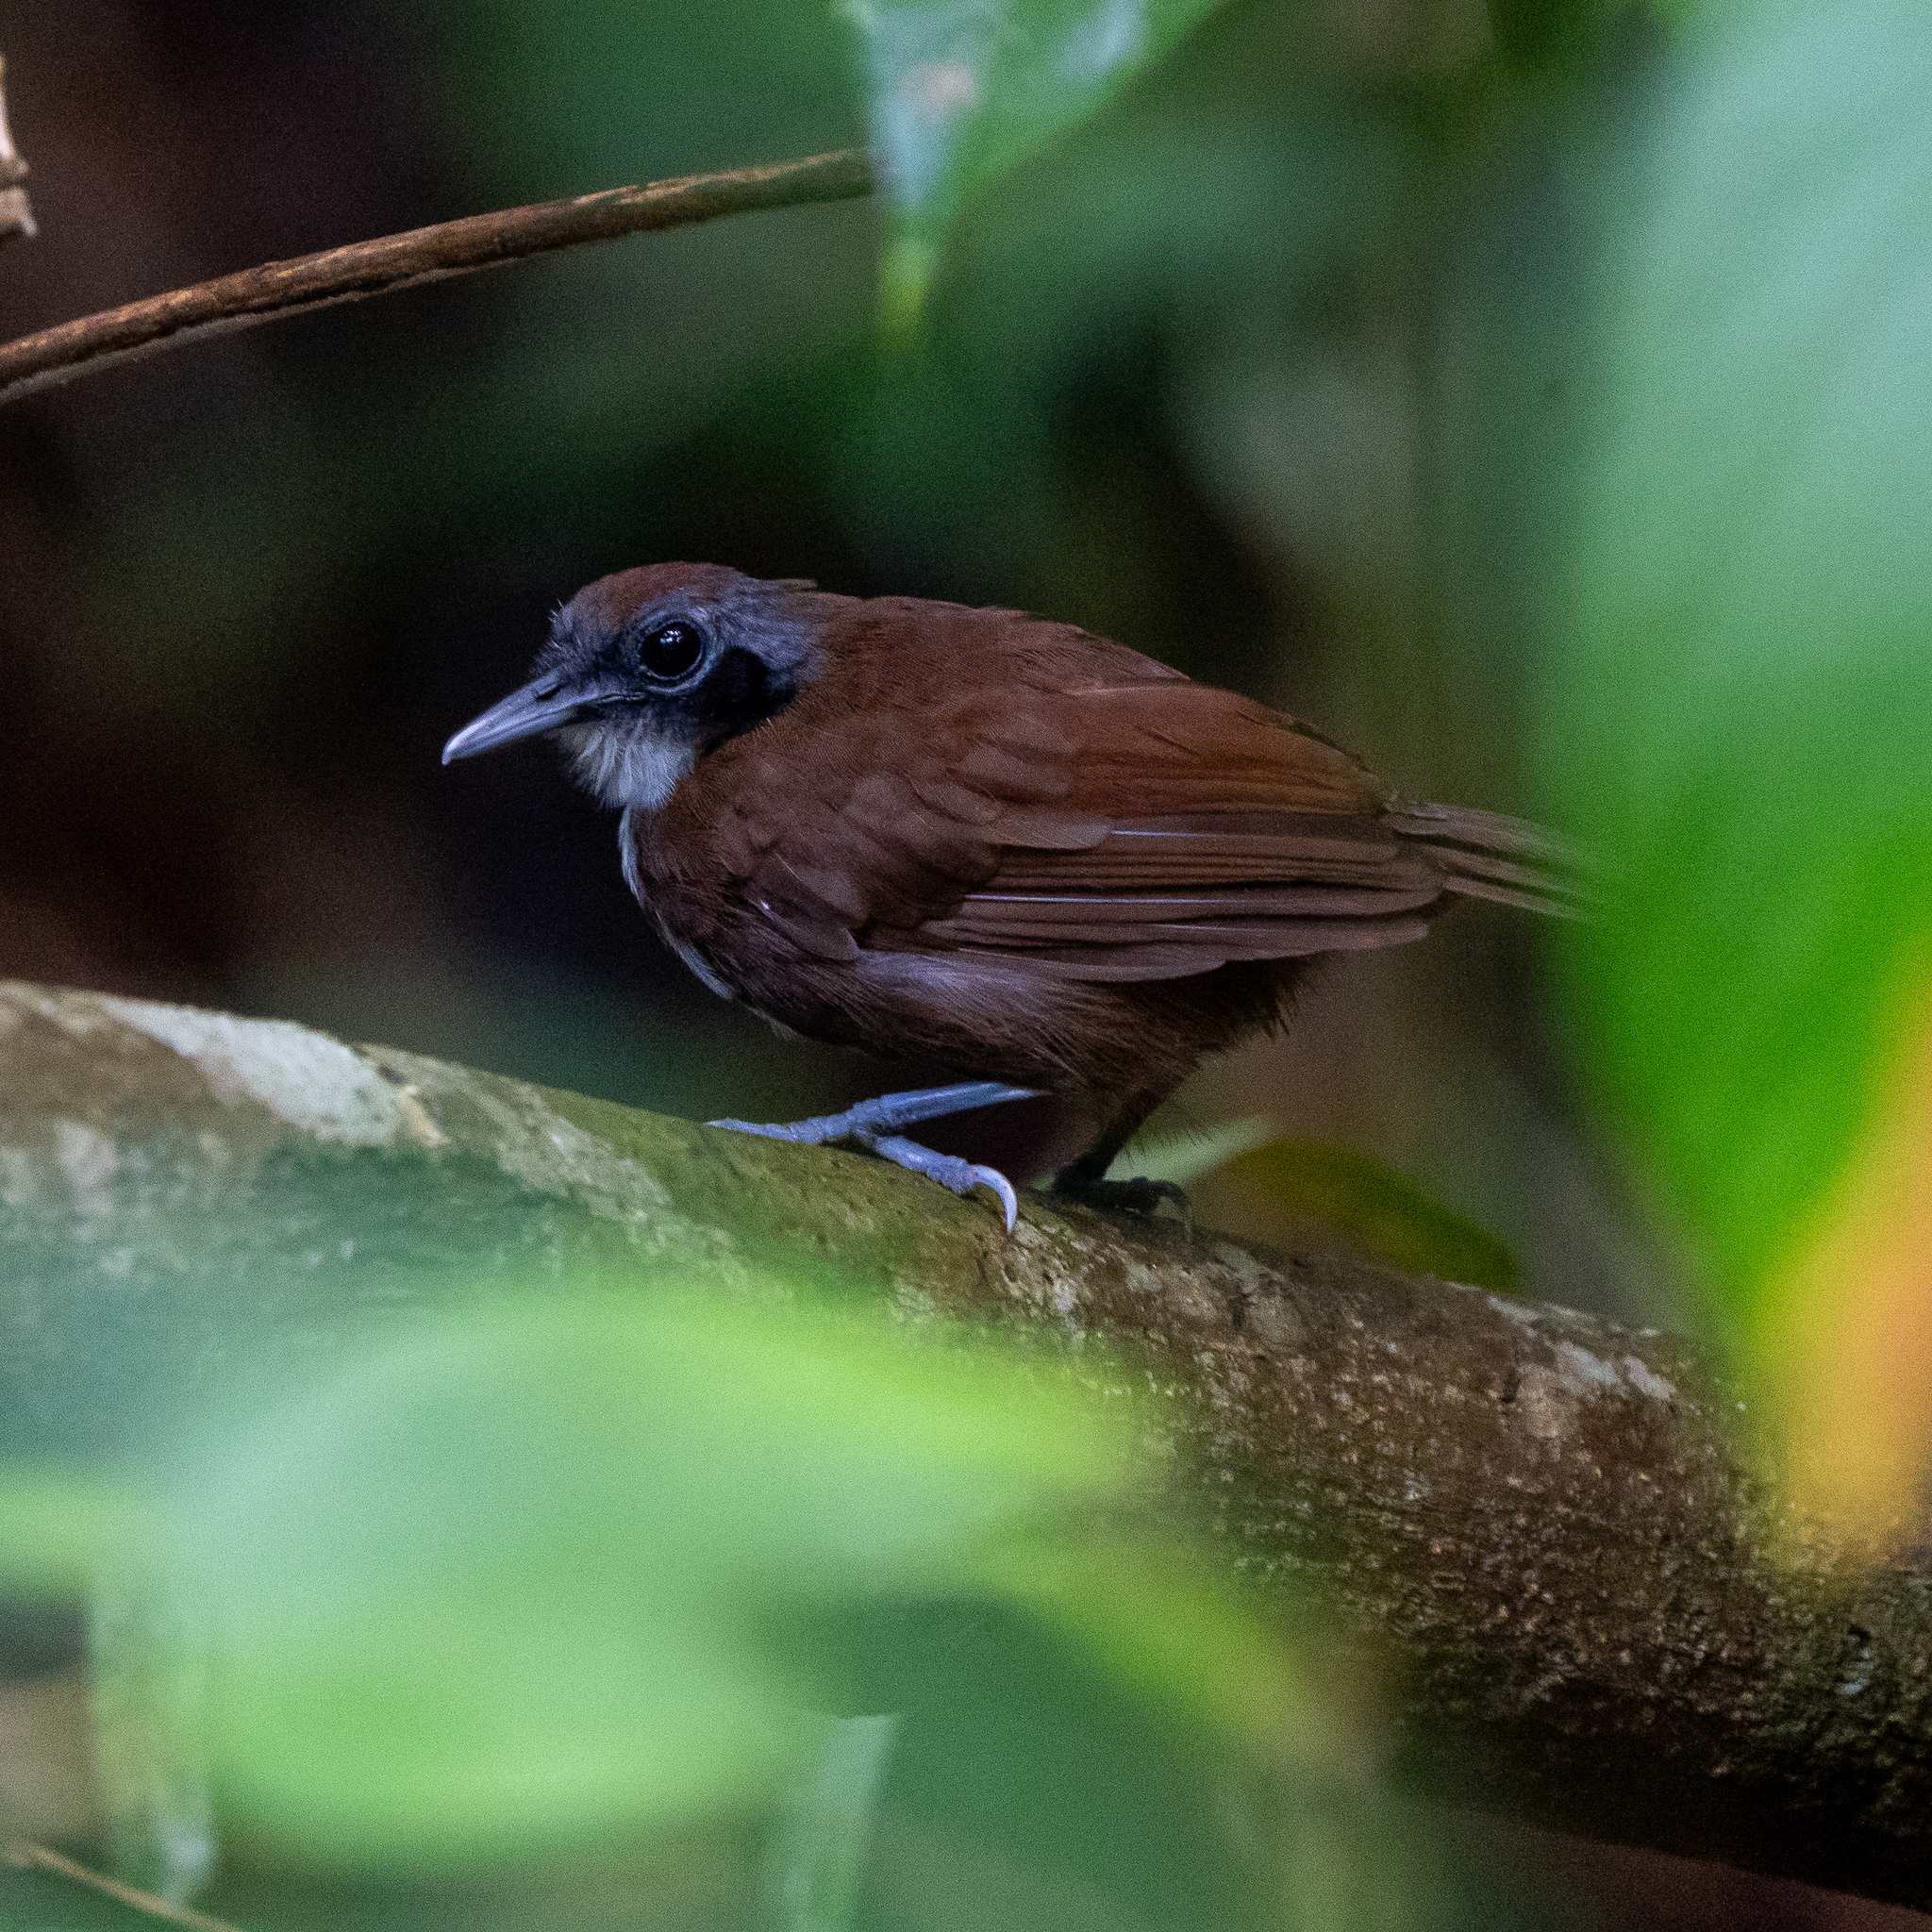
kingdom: Animalia
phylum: Chordata
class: Aves
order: Passeriformes
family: Thamnophilidae
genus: Gymnopithys
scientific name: Gymnopithys leucaspis
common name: White-cheeked antbird
